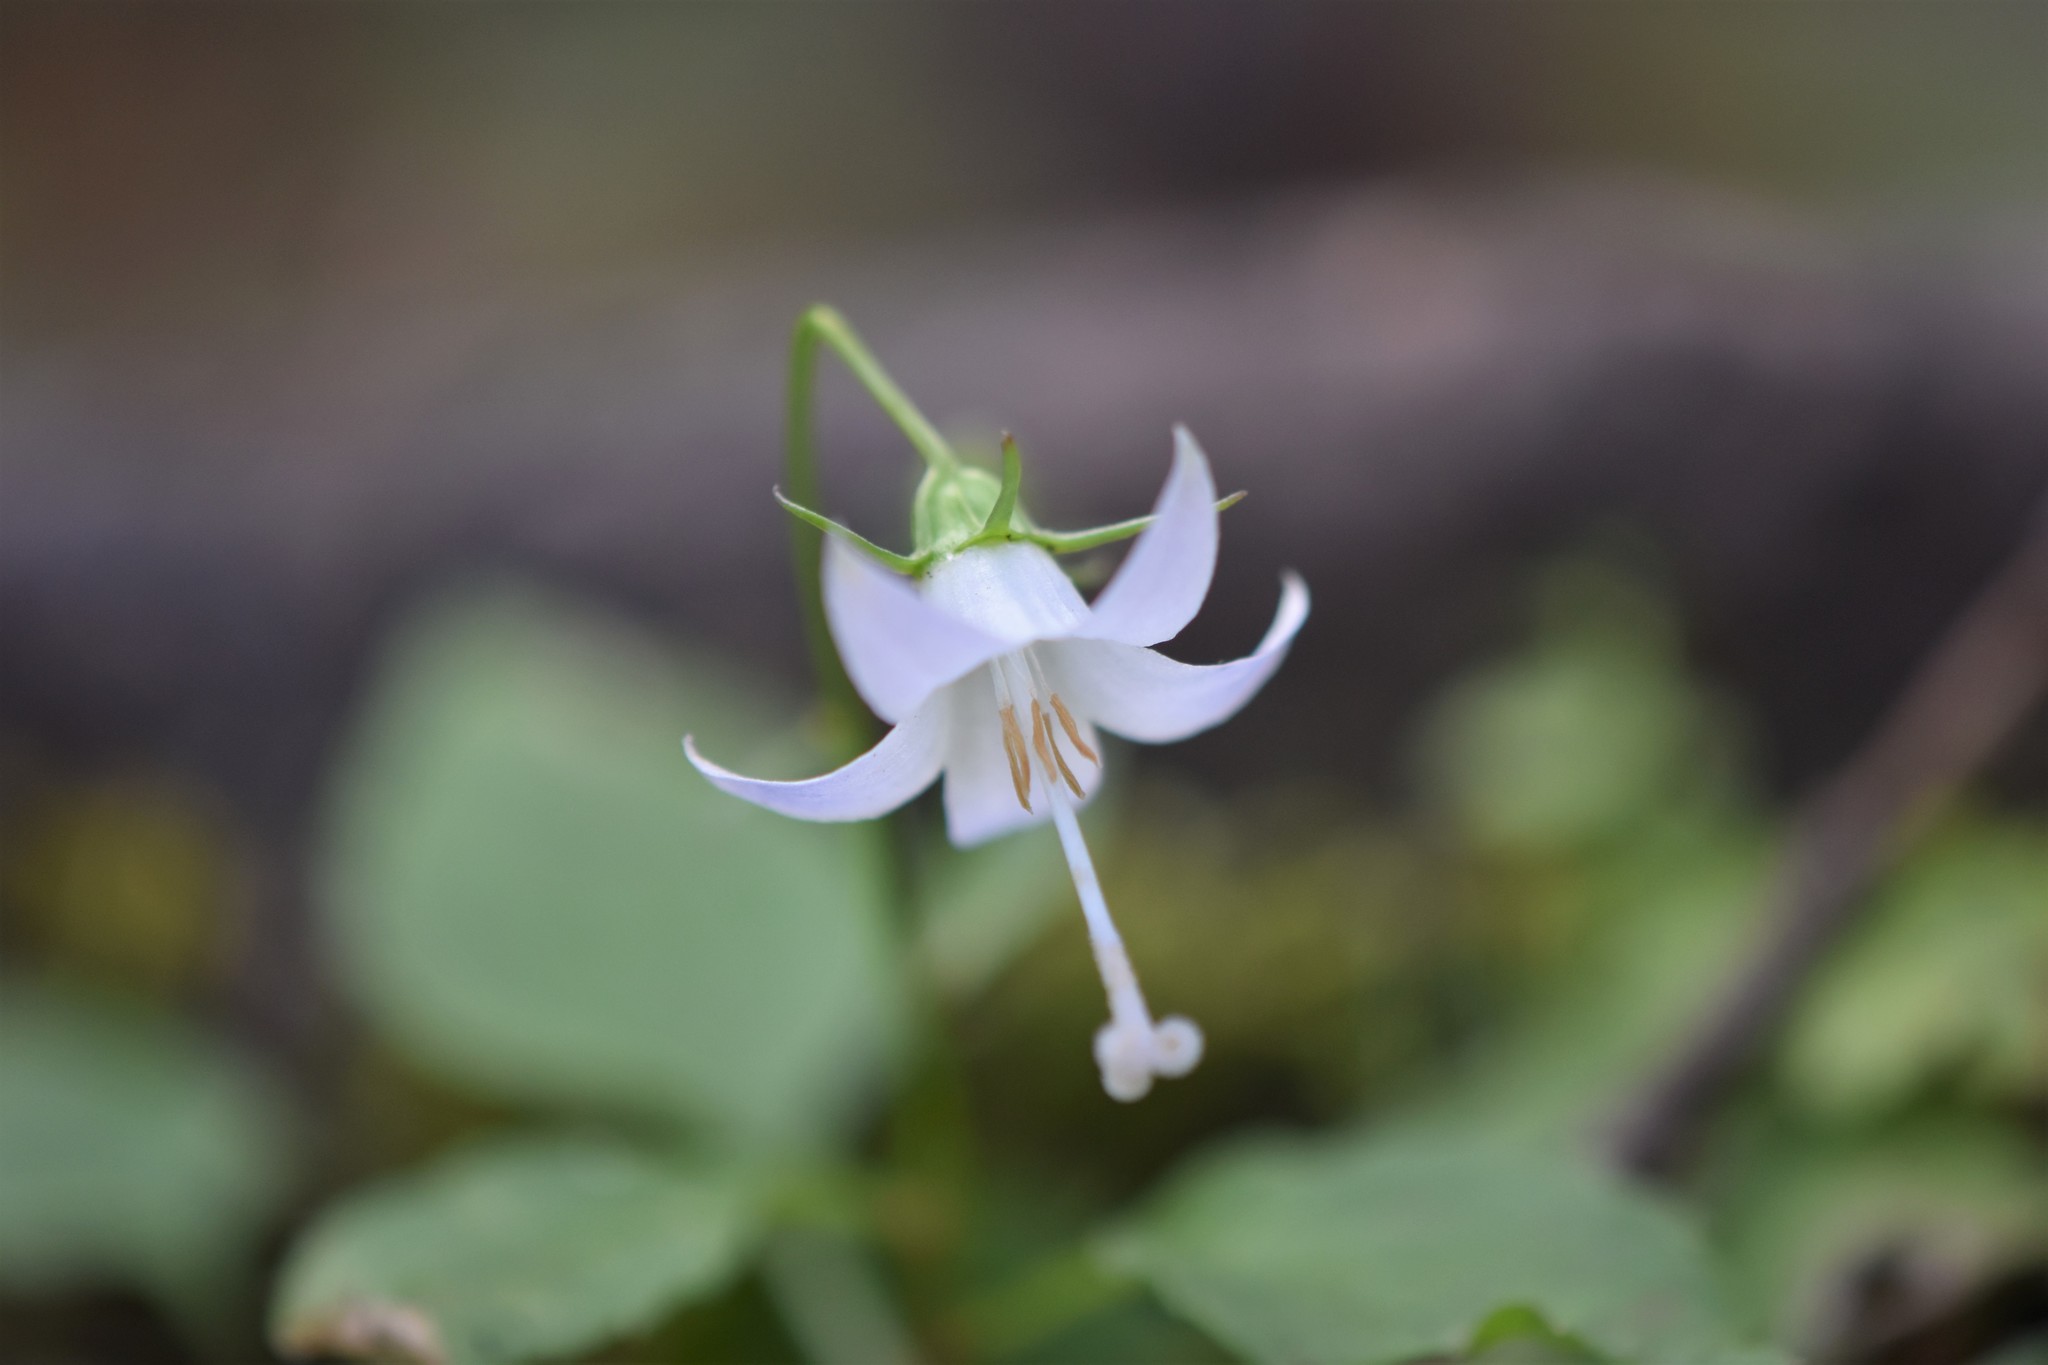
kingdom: Plantae
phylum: Tracheophyta
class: Magnoliopsida
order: Asterales
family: Campanulaceae
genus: Campanula
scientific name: Campanula scouleri
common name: Scouler's harebell
